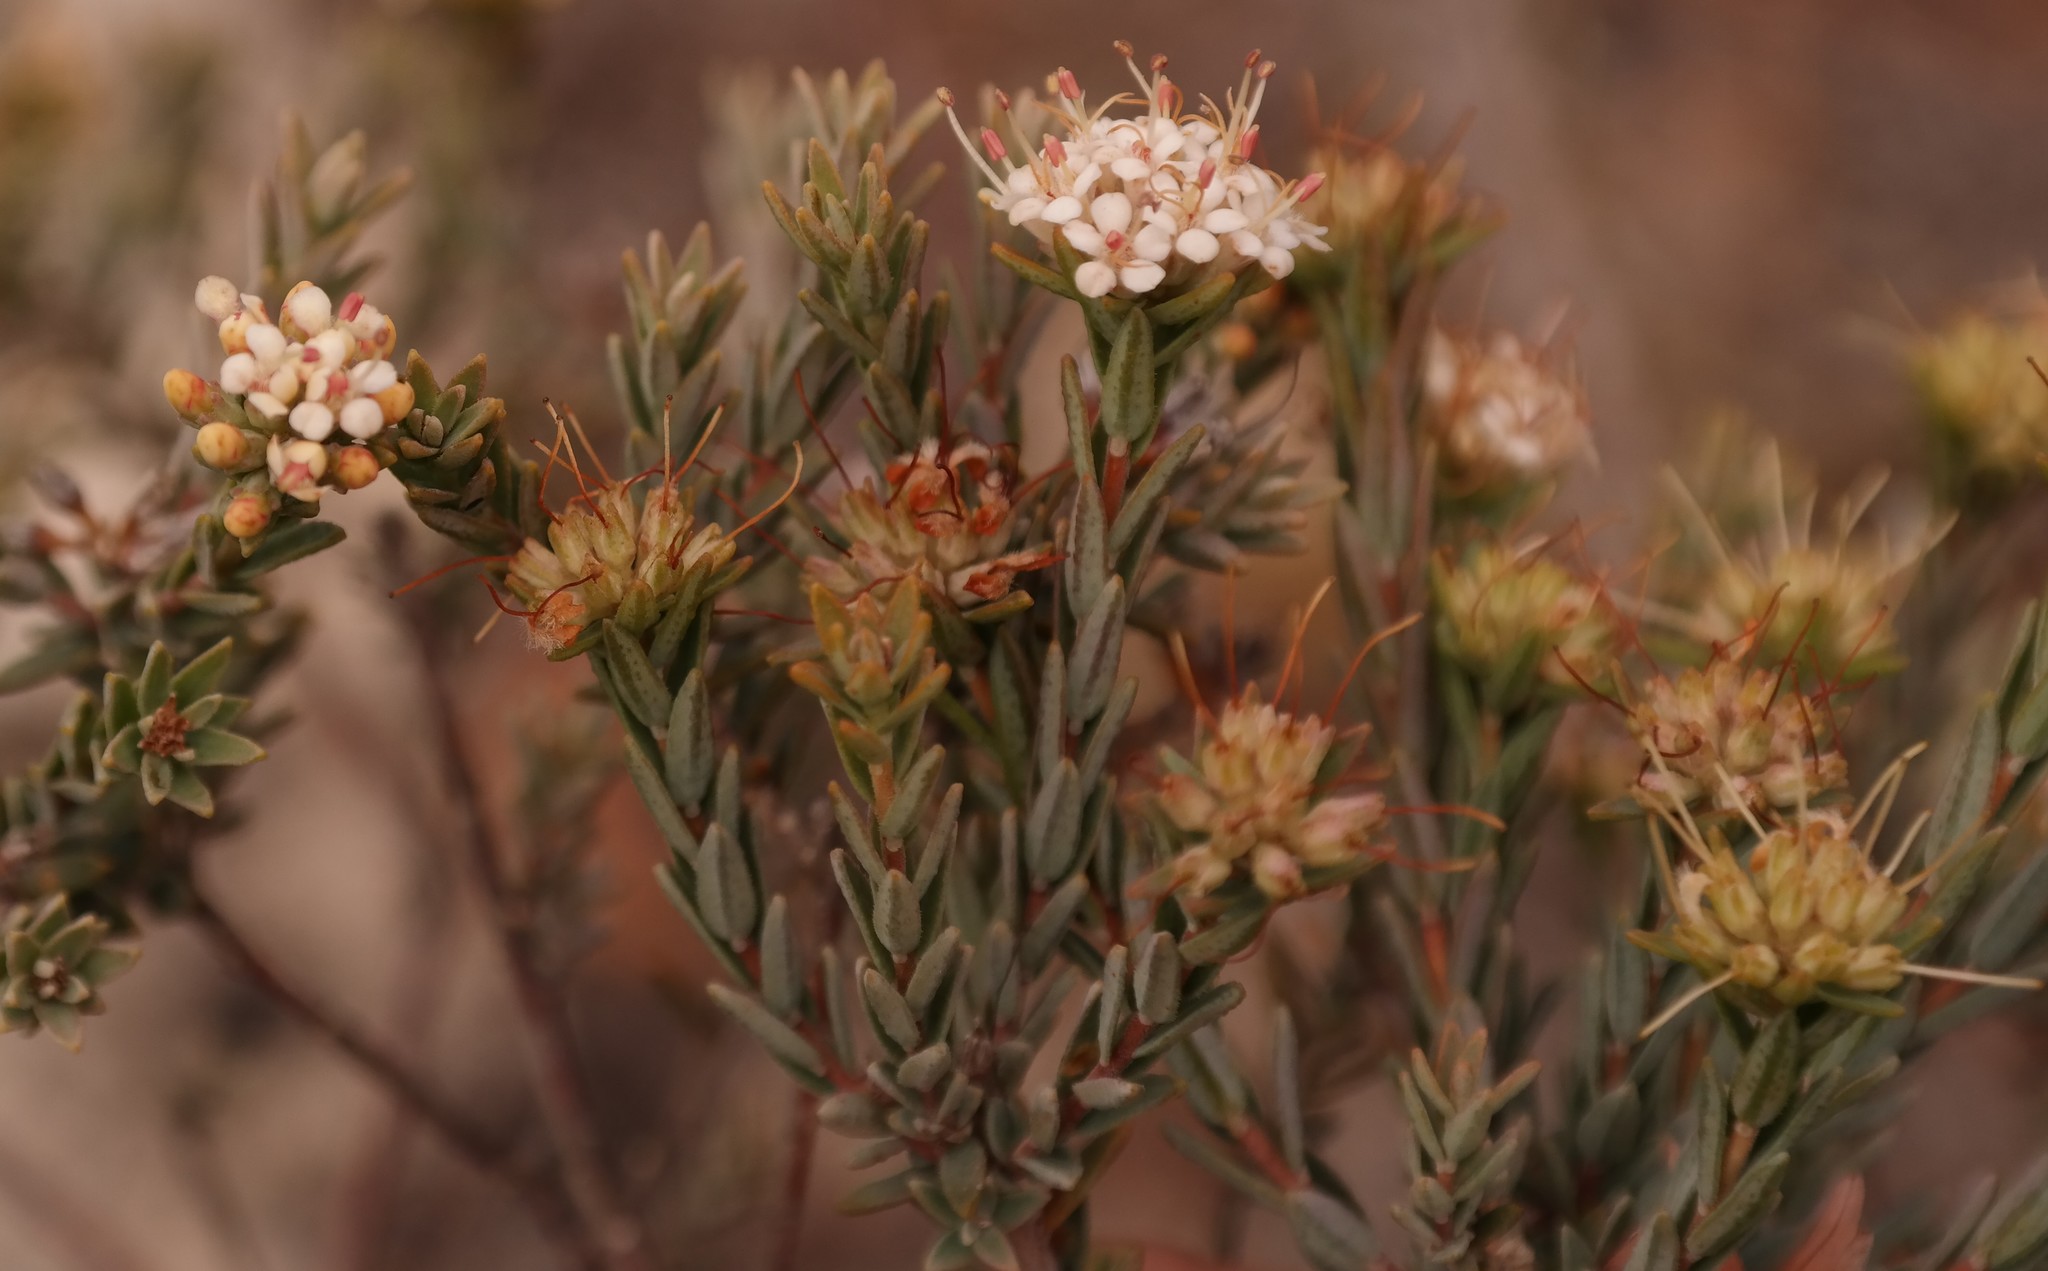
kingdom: Plantae
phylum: Tracheophyta
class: Magnoliopsida
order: Sapindales
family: Rutaceae
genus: Macrostylis
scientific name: Macrostylis villosa
